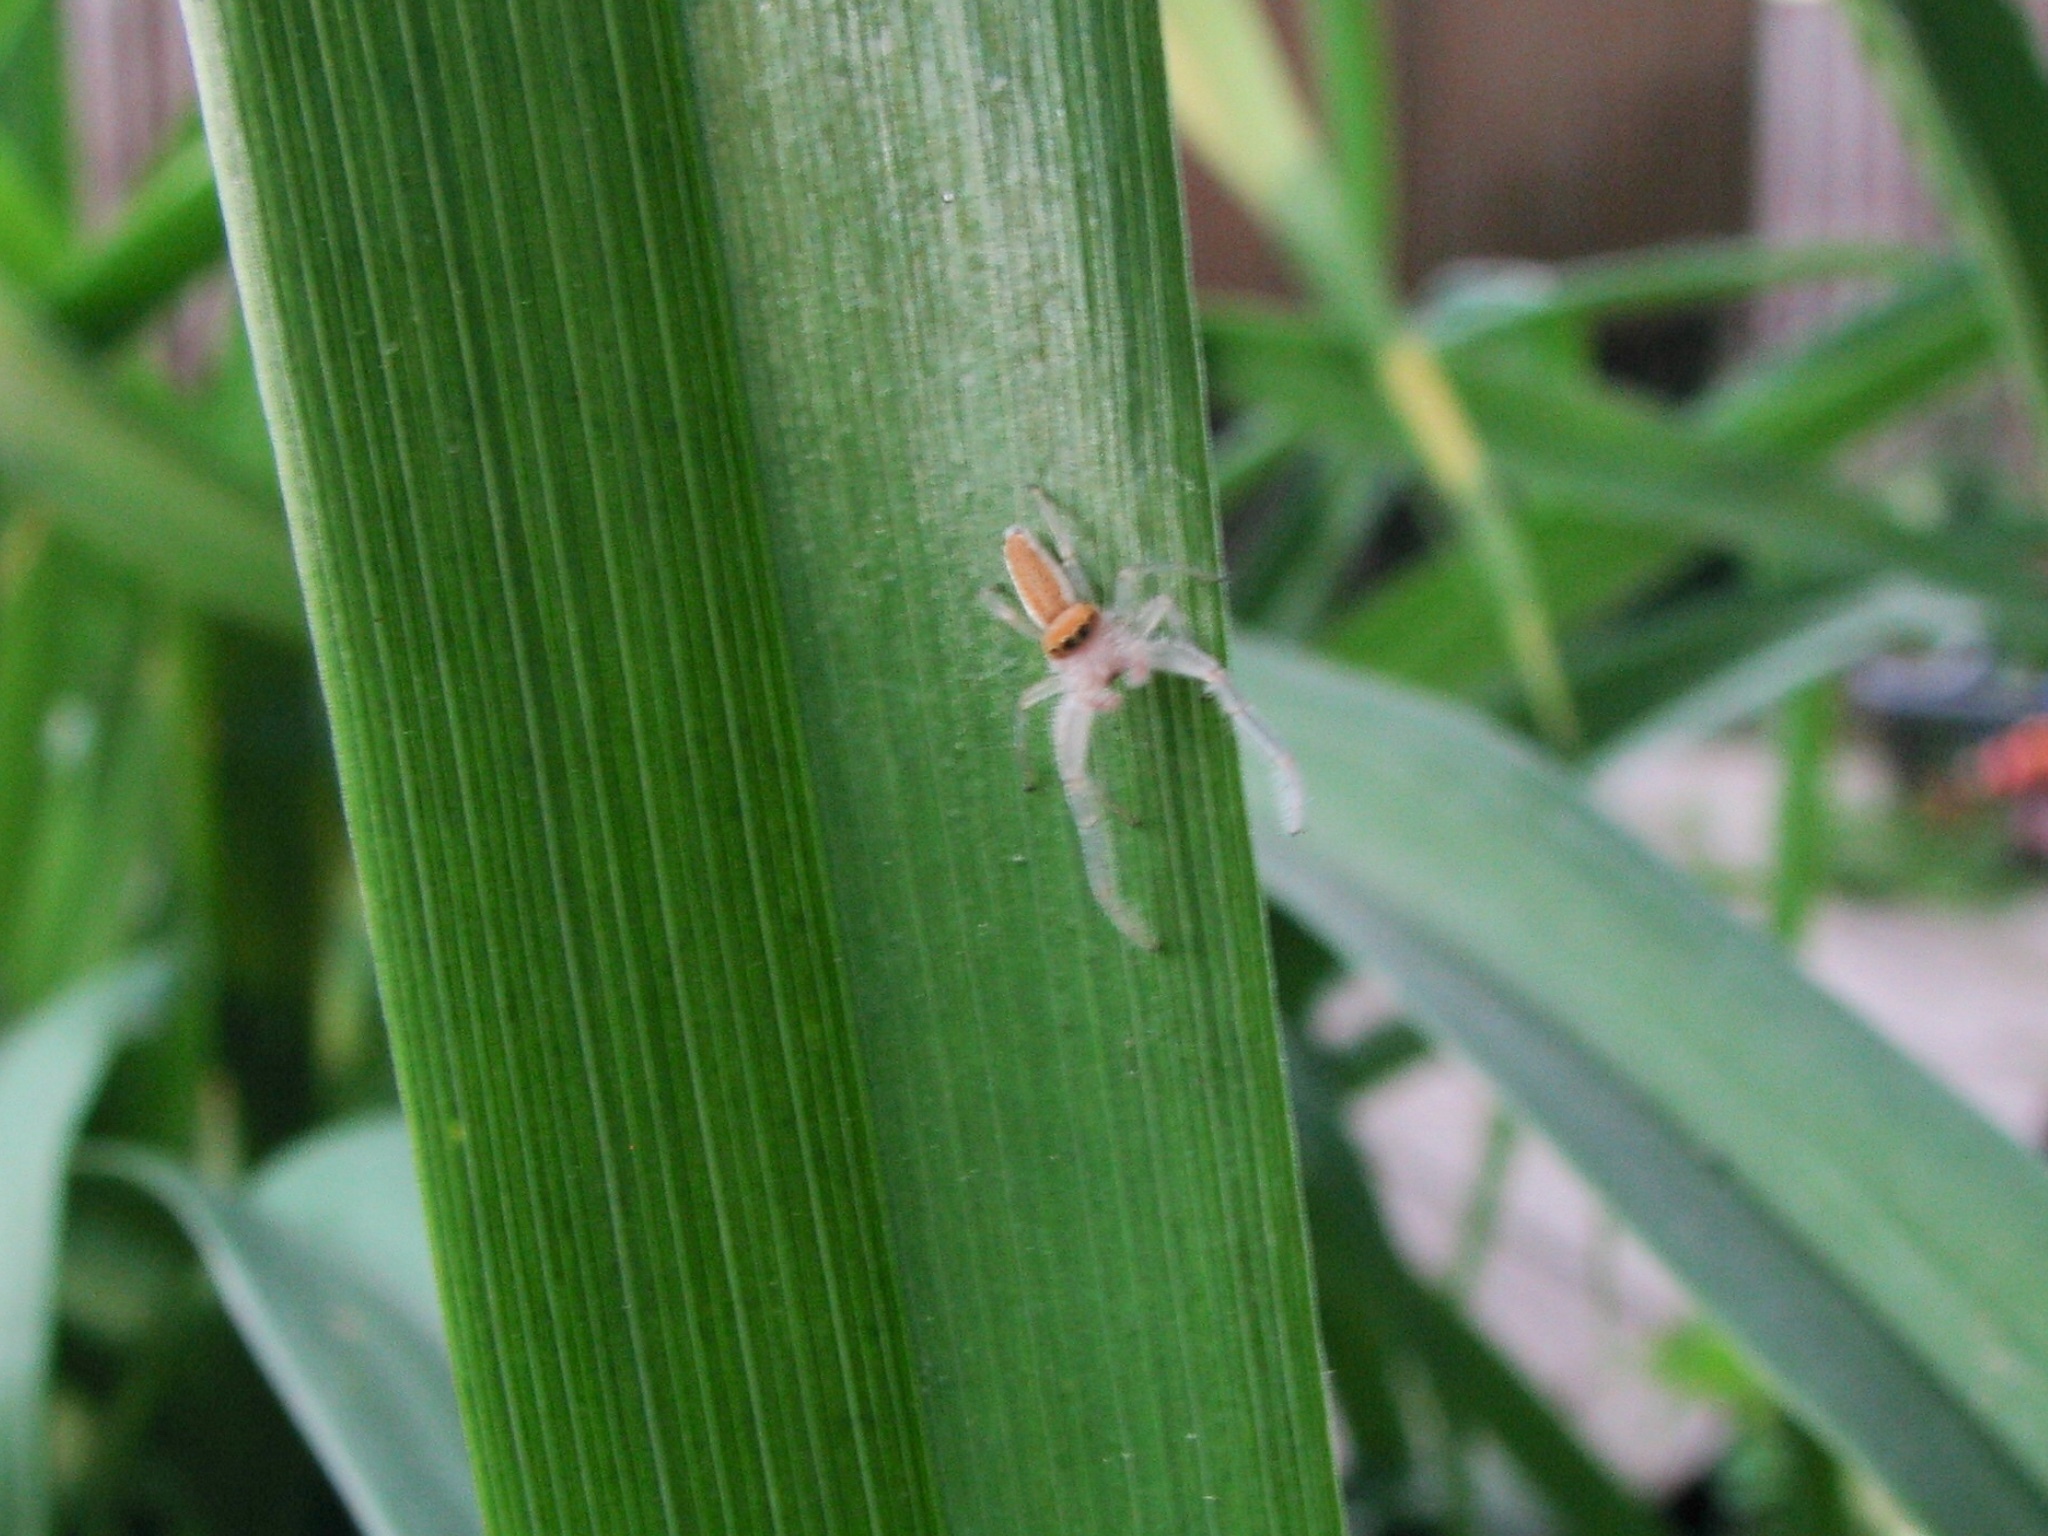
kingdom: Animalia
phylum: Arthropoda
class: Arachnida
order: Araneae
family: Salticidae
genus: Hentzia
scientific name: Hentzia mitrata
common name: White-jawed jumping spider
